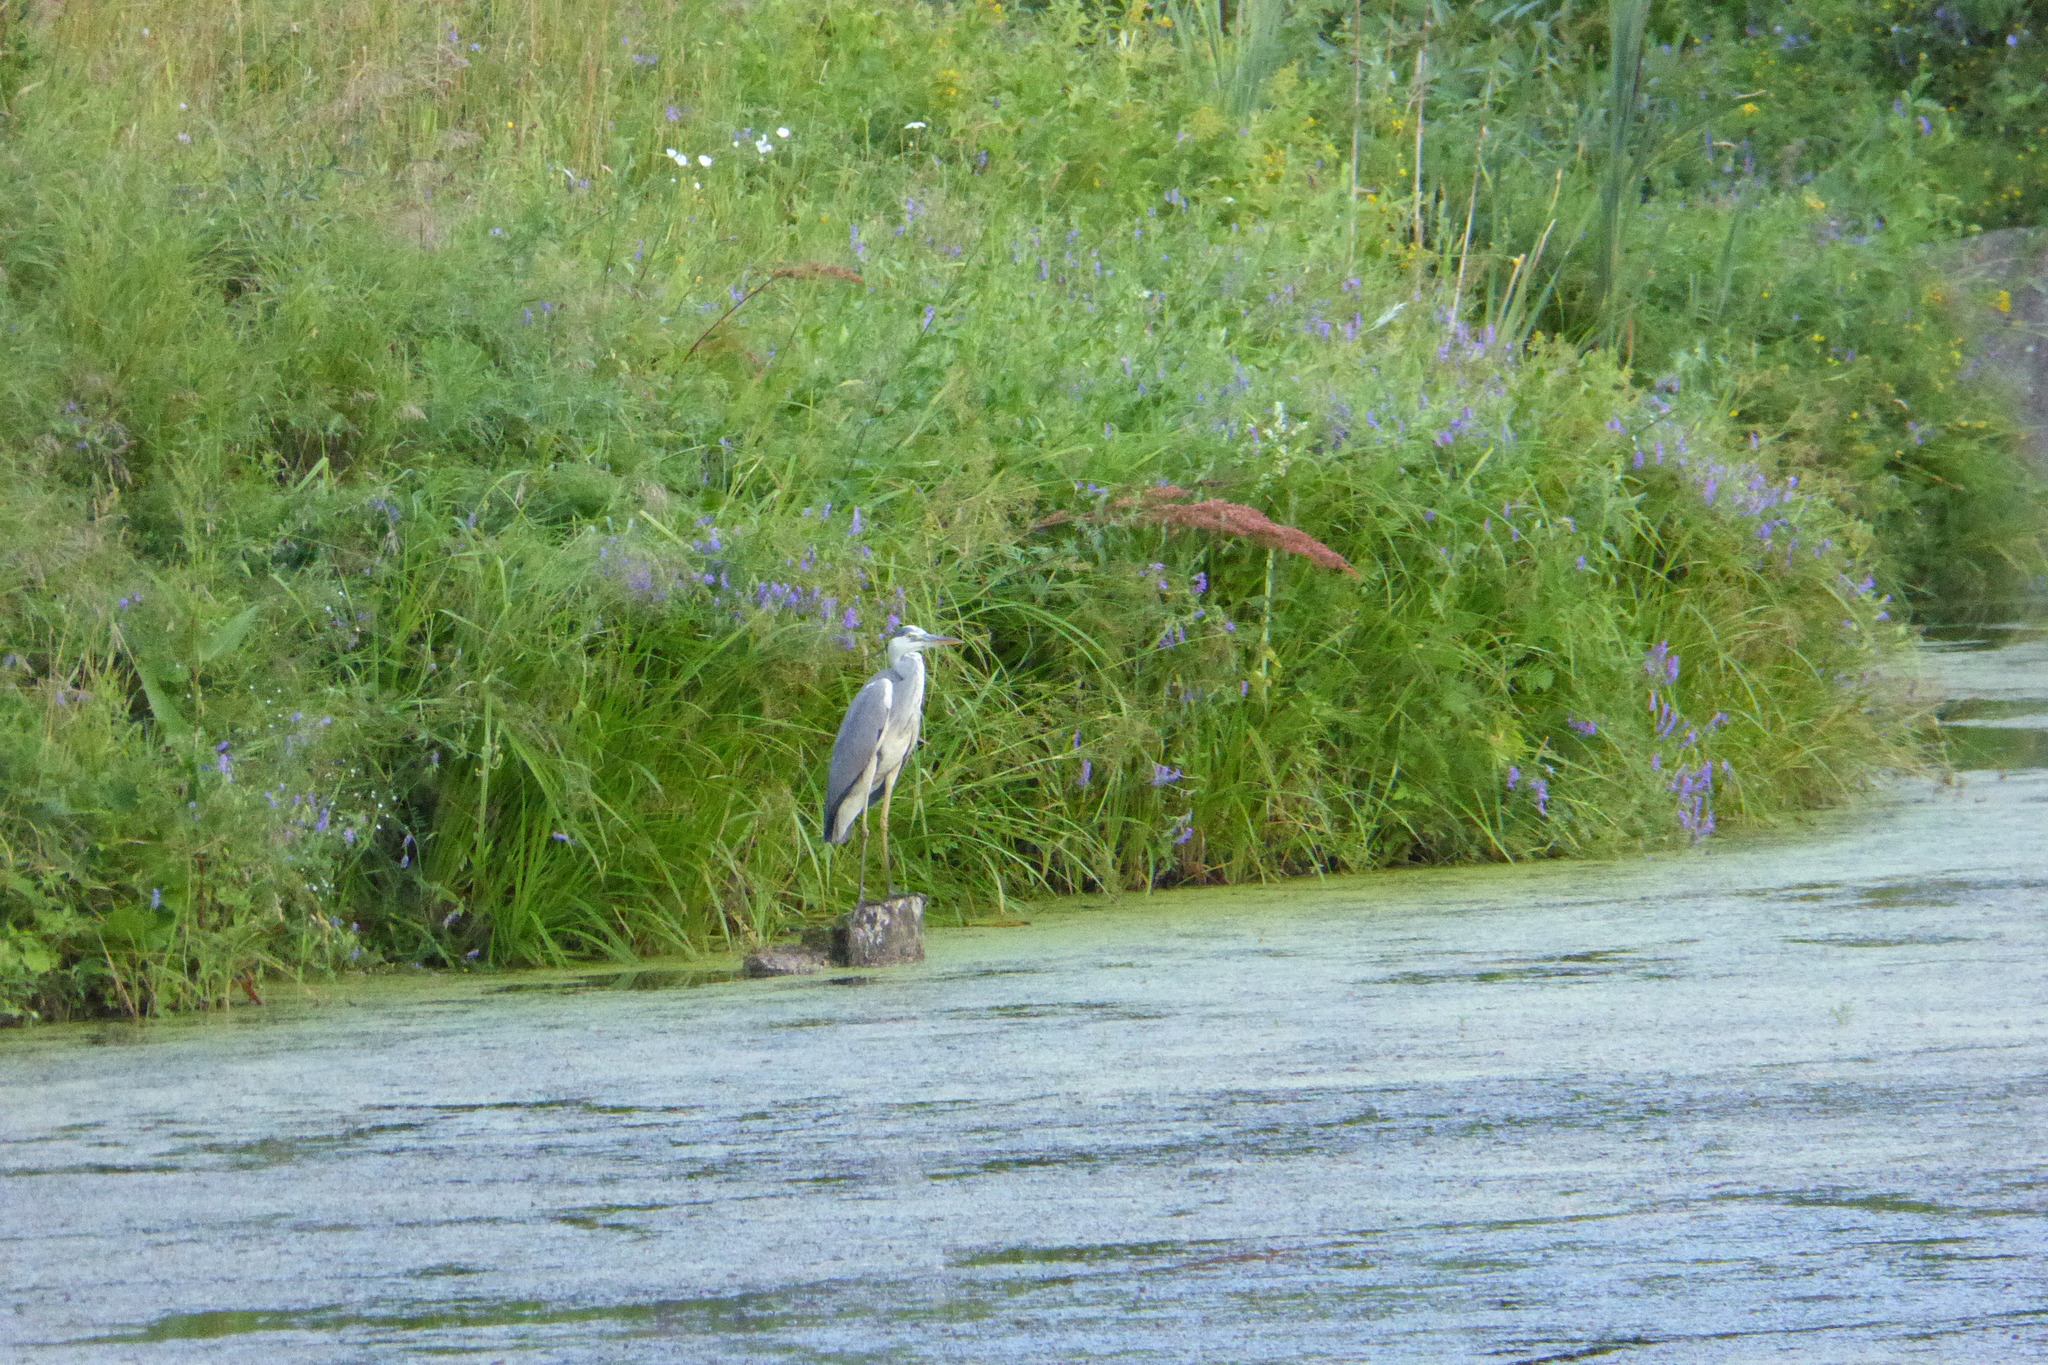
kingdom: Animalia
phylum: Chordata
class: Aves
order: Pelecaniformes
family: Ardeidae
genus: Ardea
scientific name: Ardea cinerea
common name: Grey heron
